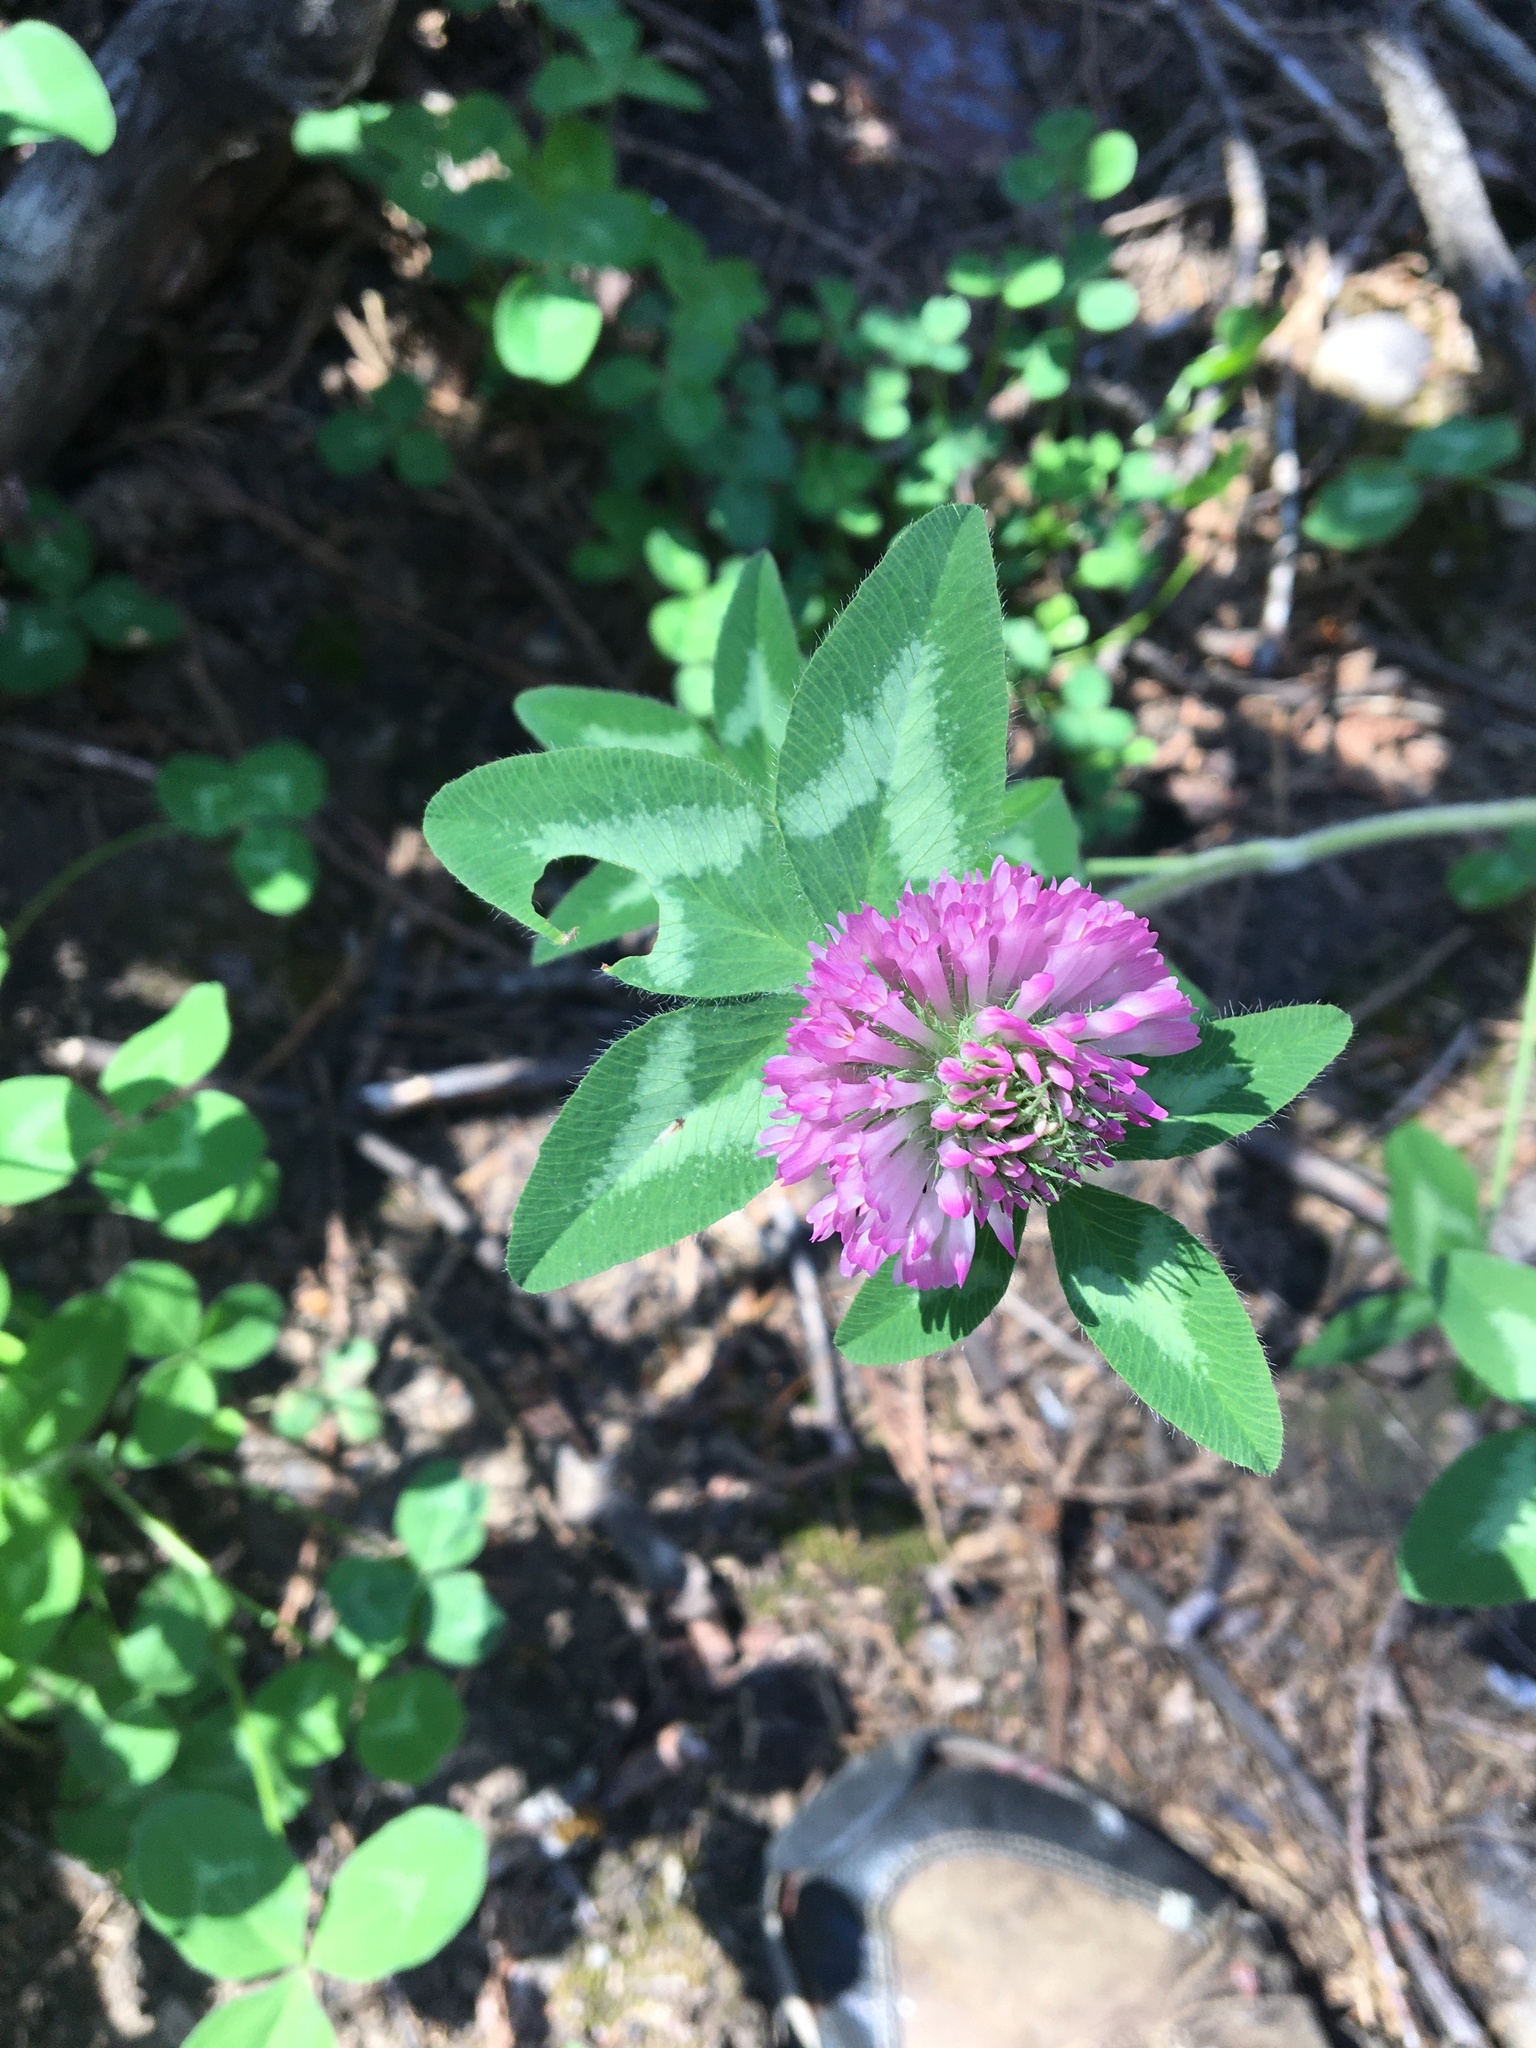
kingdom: Plantae
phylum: Tracheophyta
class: Magnoliopsida
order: Fabales
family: Fabaceae
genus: Trifolium
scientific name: Trifolium pratense
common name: Red clover
